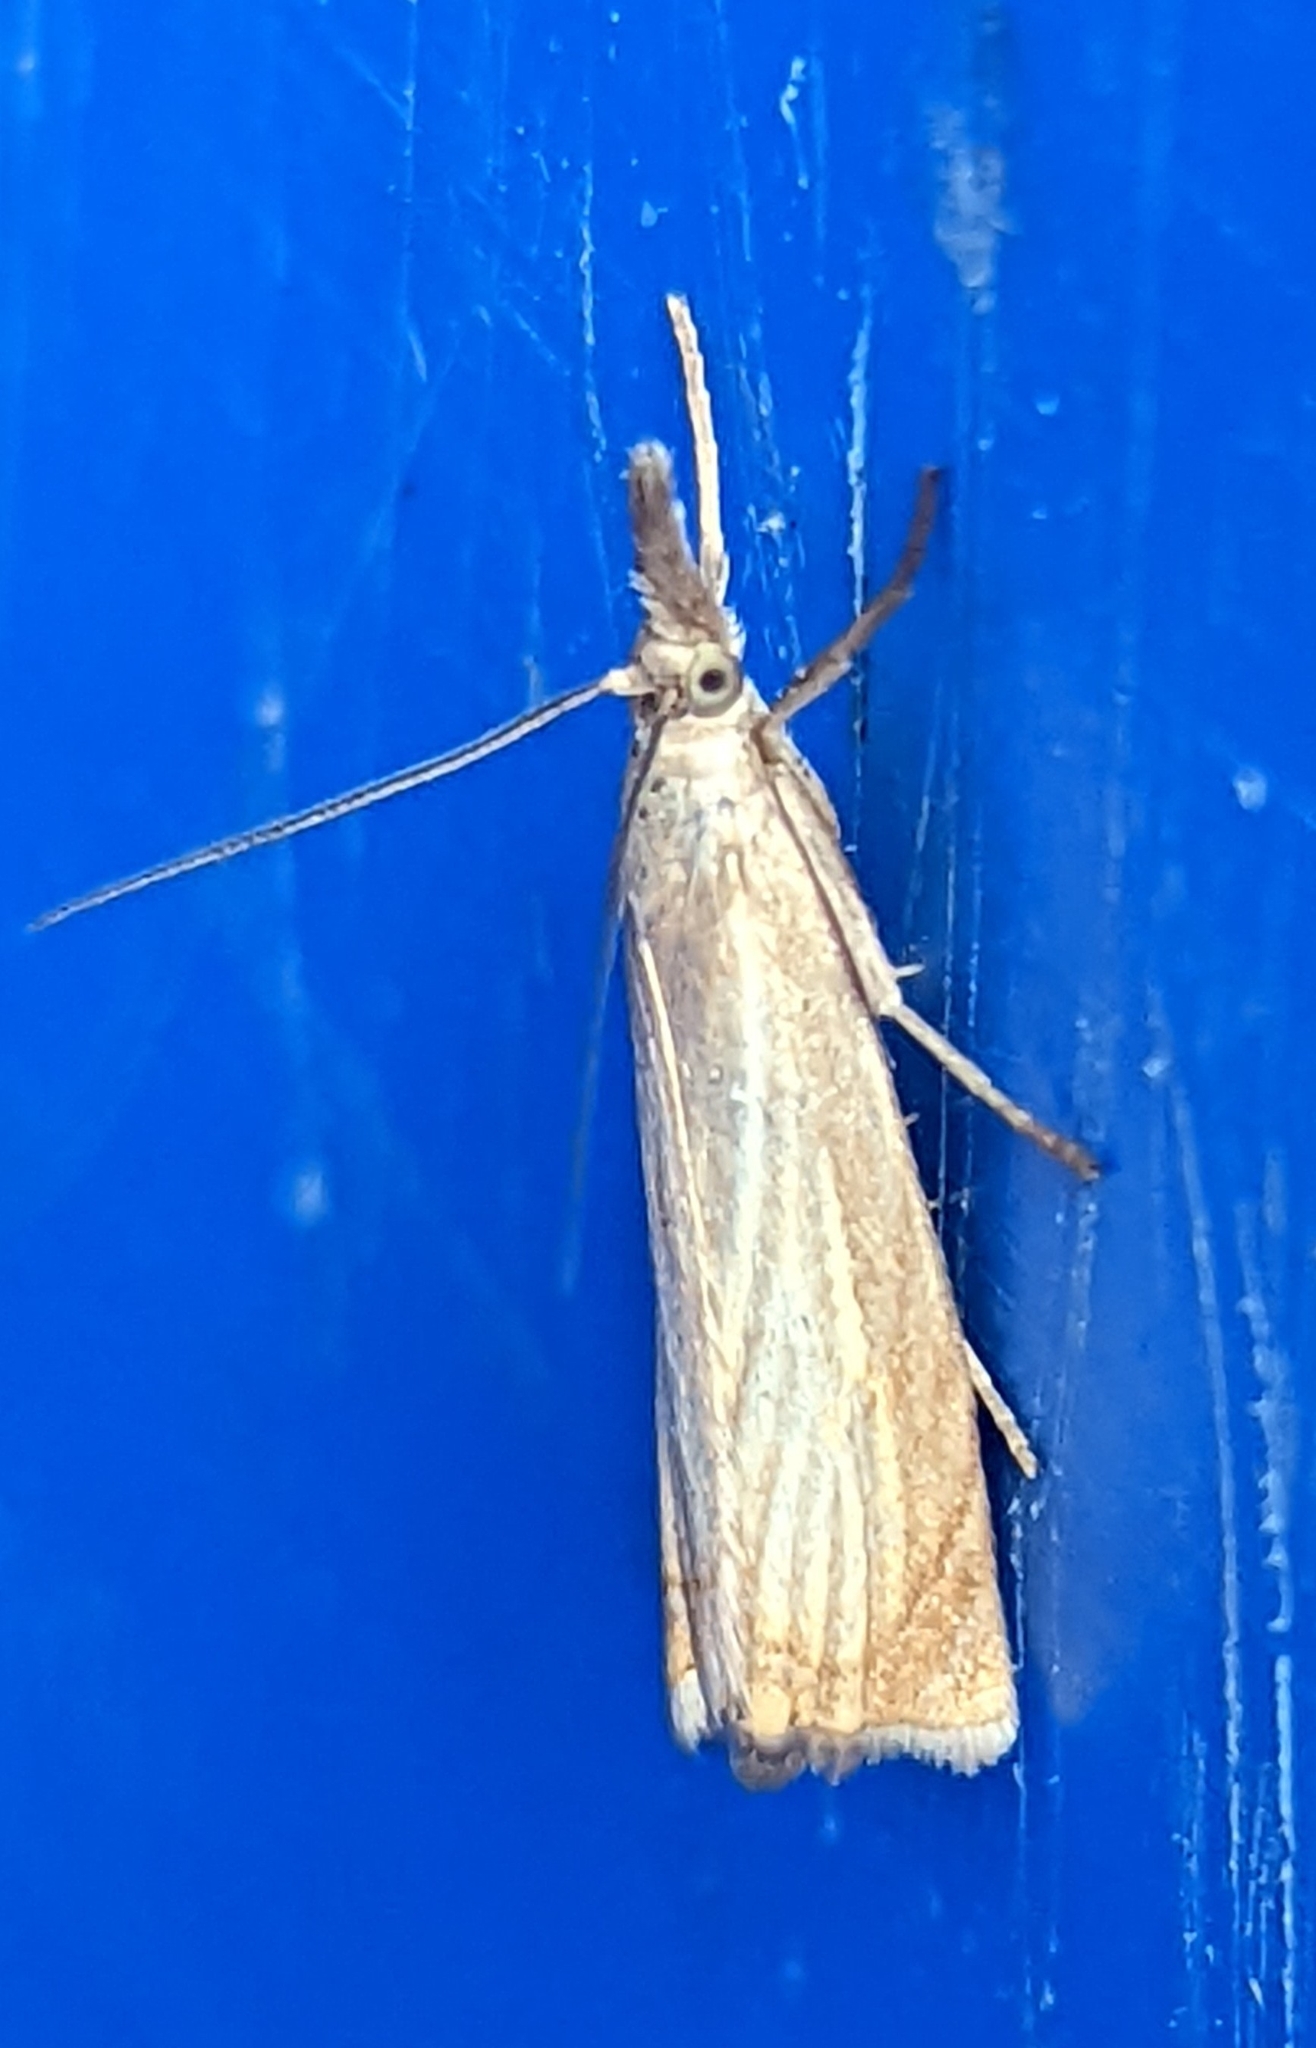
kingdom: Animalia
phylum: Arthropoda
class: Insecta
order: Lepidoptera
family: Crambidae
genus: Chrysoteuchia
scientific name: Chrysoteuchia culmella
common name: Garden grass-veneer
